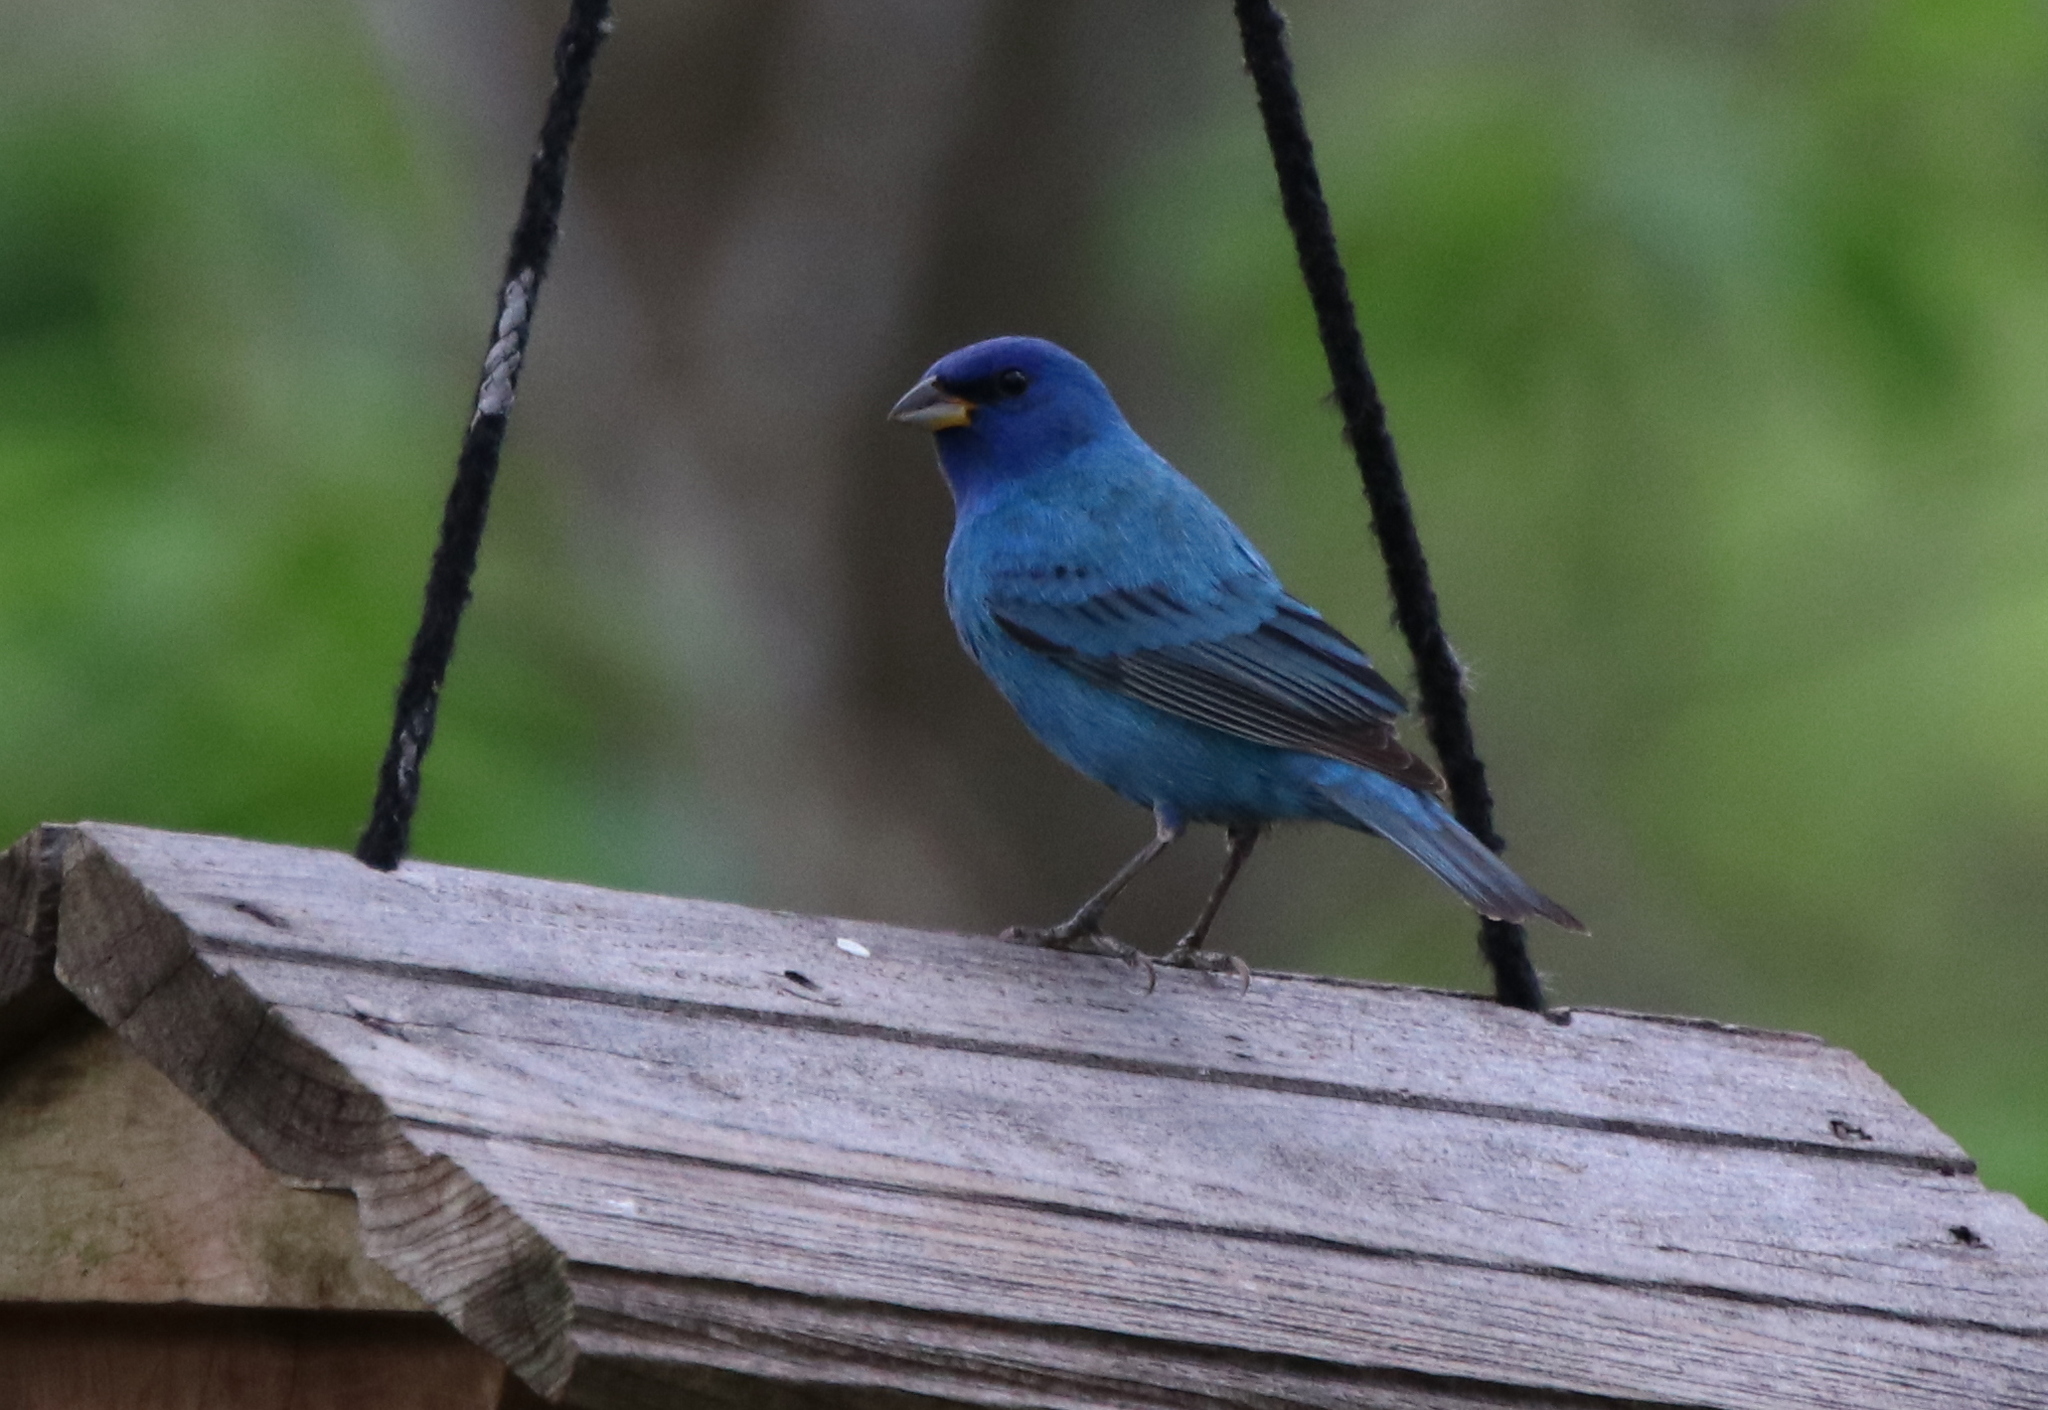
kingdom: Animalia
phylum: Chordata
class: Aves
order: Passeriformes
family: Cardinalidae
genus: Passerina
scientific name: Passerina cyanea
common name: Indigo bunting
